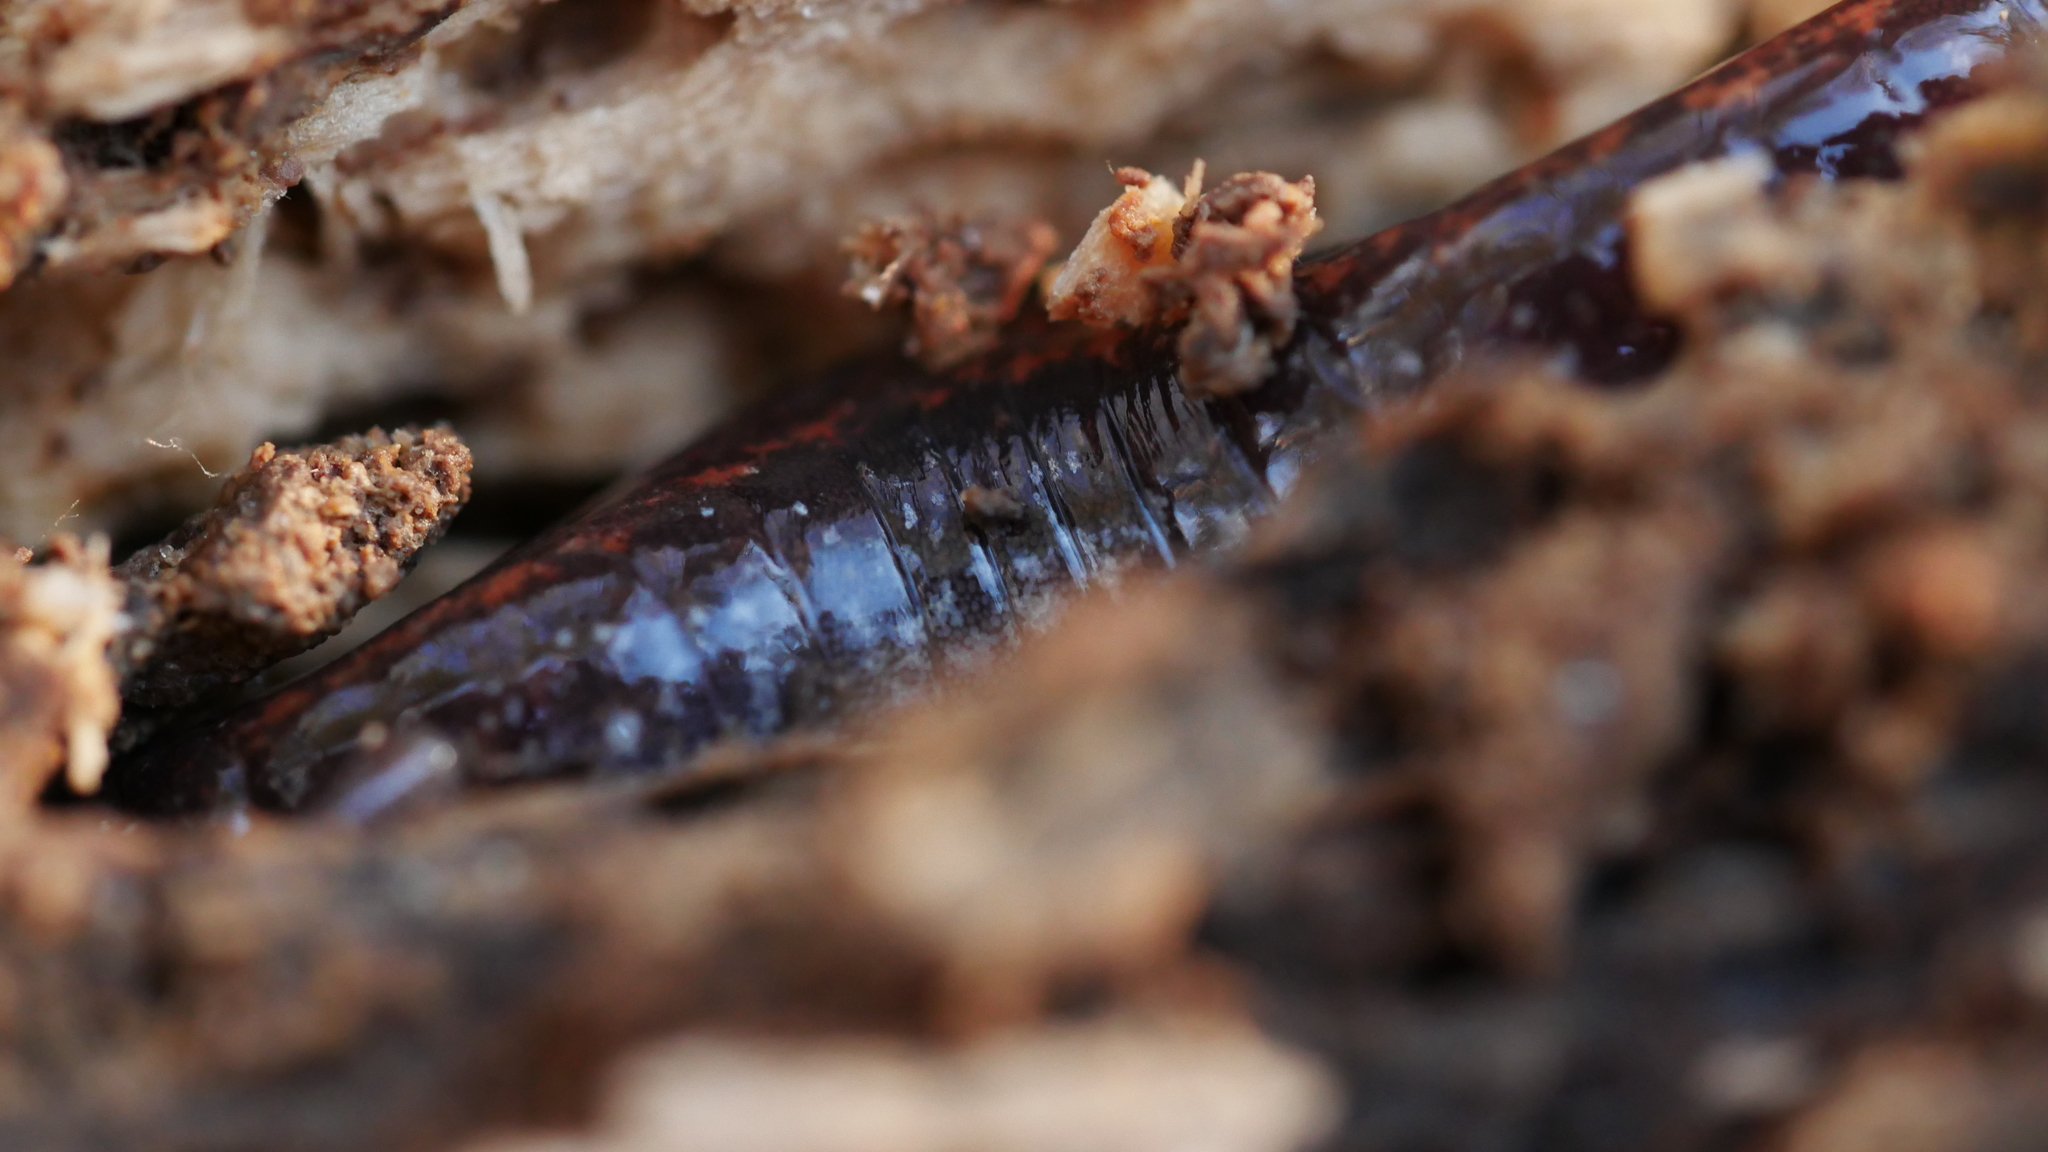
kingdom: Animalia
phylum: Chordata
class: Amphibia
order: Caudata
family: Plethodontidae
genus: Plethodon
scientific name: Plethodon cinereus
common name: Redback salamander
